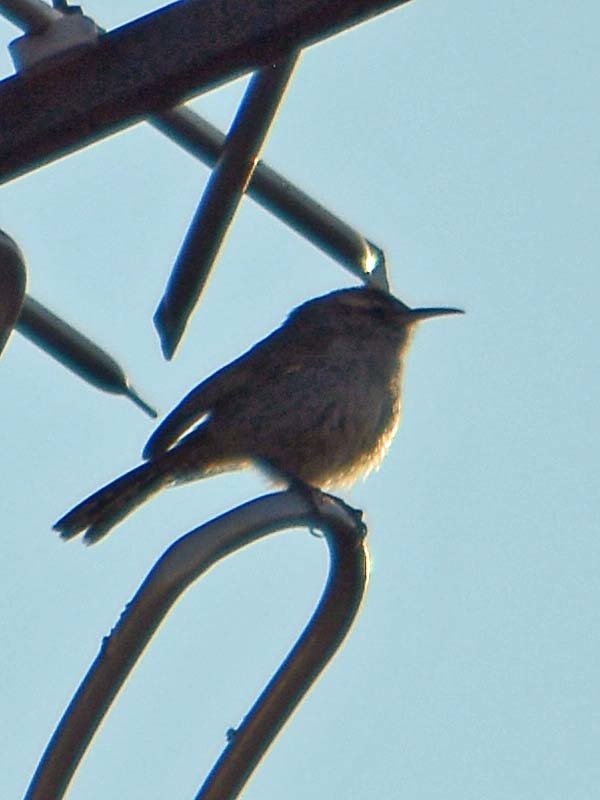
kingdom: Animalia
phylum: Chordata
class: Aves
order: Passeriformes
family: Troglodytidae
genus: Thryomanes
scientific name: Thryomanes bewickii
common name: Bewick's wren
